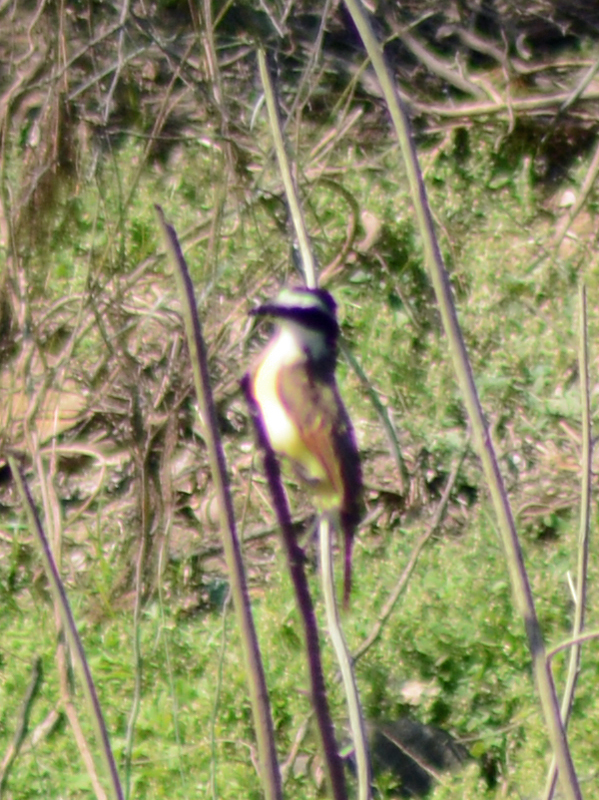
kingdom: Animalia
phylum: Chordata
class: Aves
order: Passeriformes
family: Tyrannidae
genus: Pitangus
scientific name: Pitangus sulphuratus
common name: Great kiskadee
